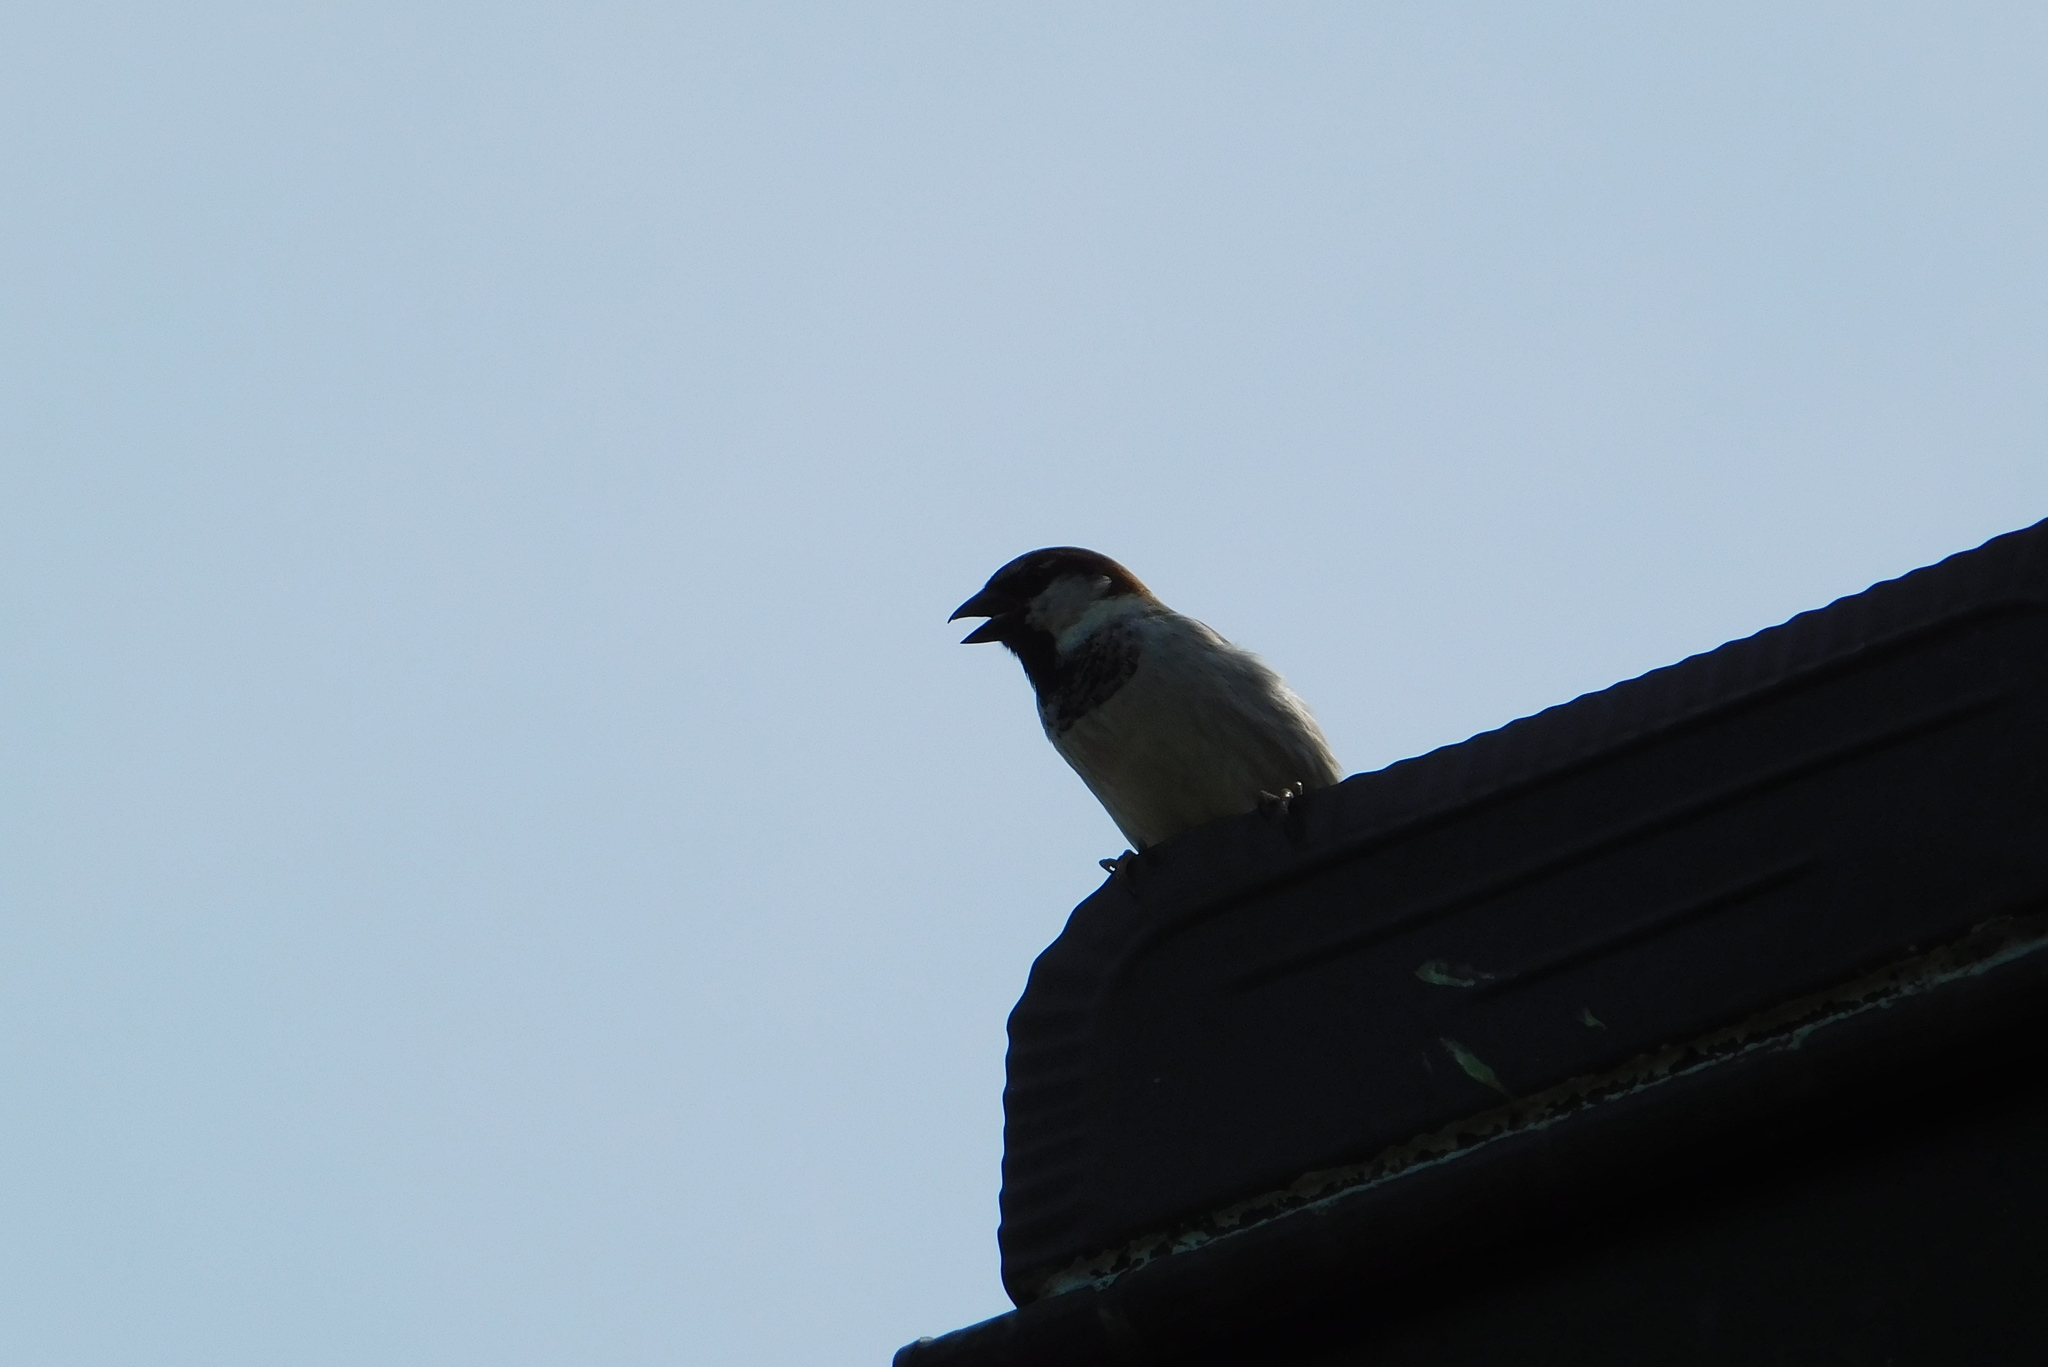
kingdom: Animalia
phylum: Chordata
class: Aves
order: Passeriformes
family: Passeridae
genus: Passer
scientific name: Passer domesticus
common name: House sparrow
